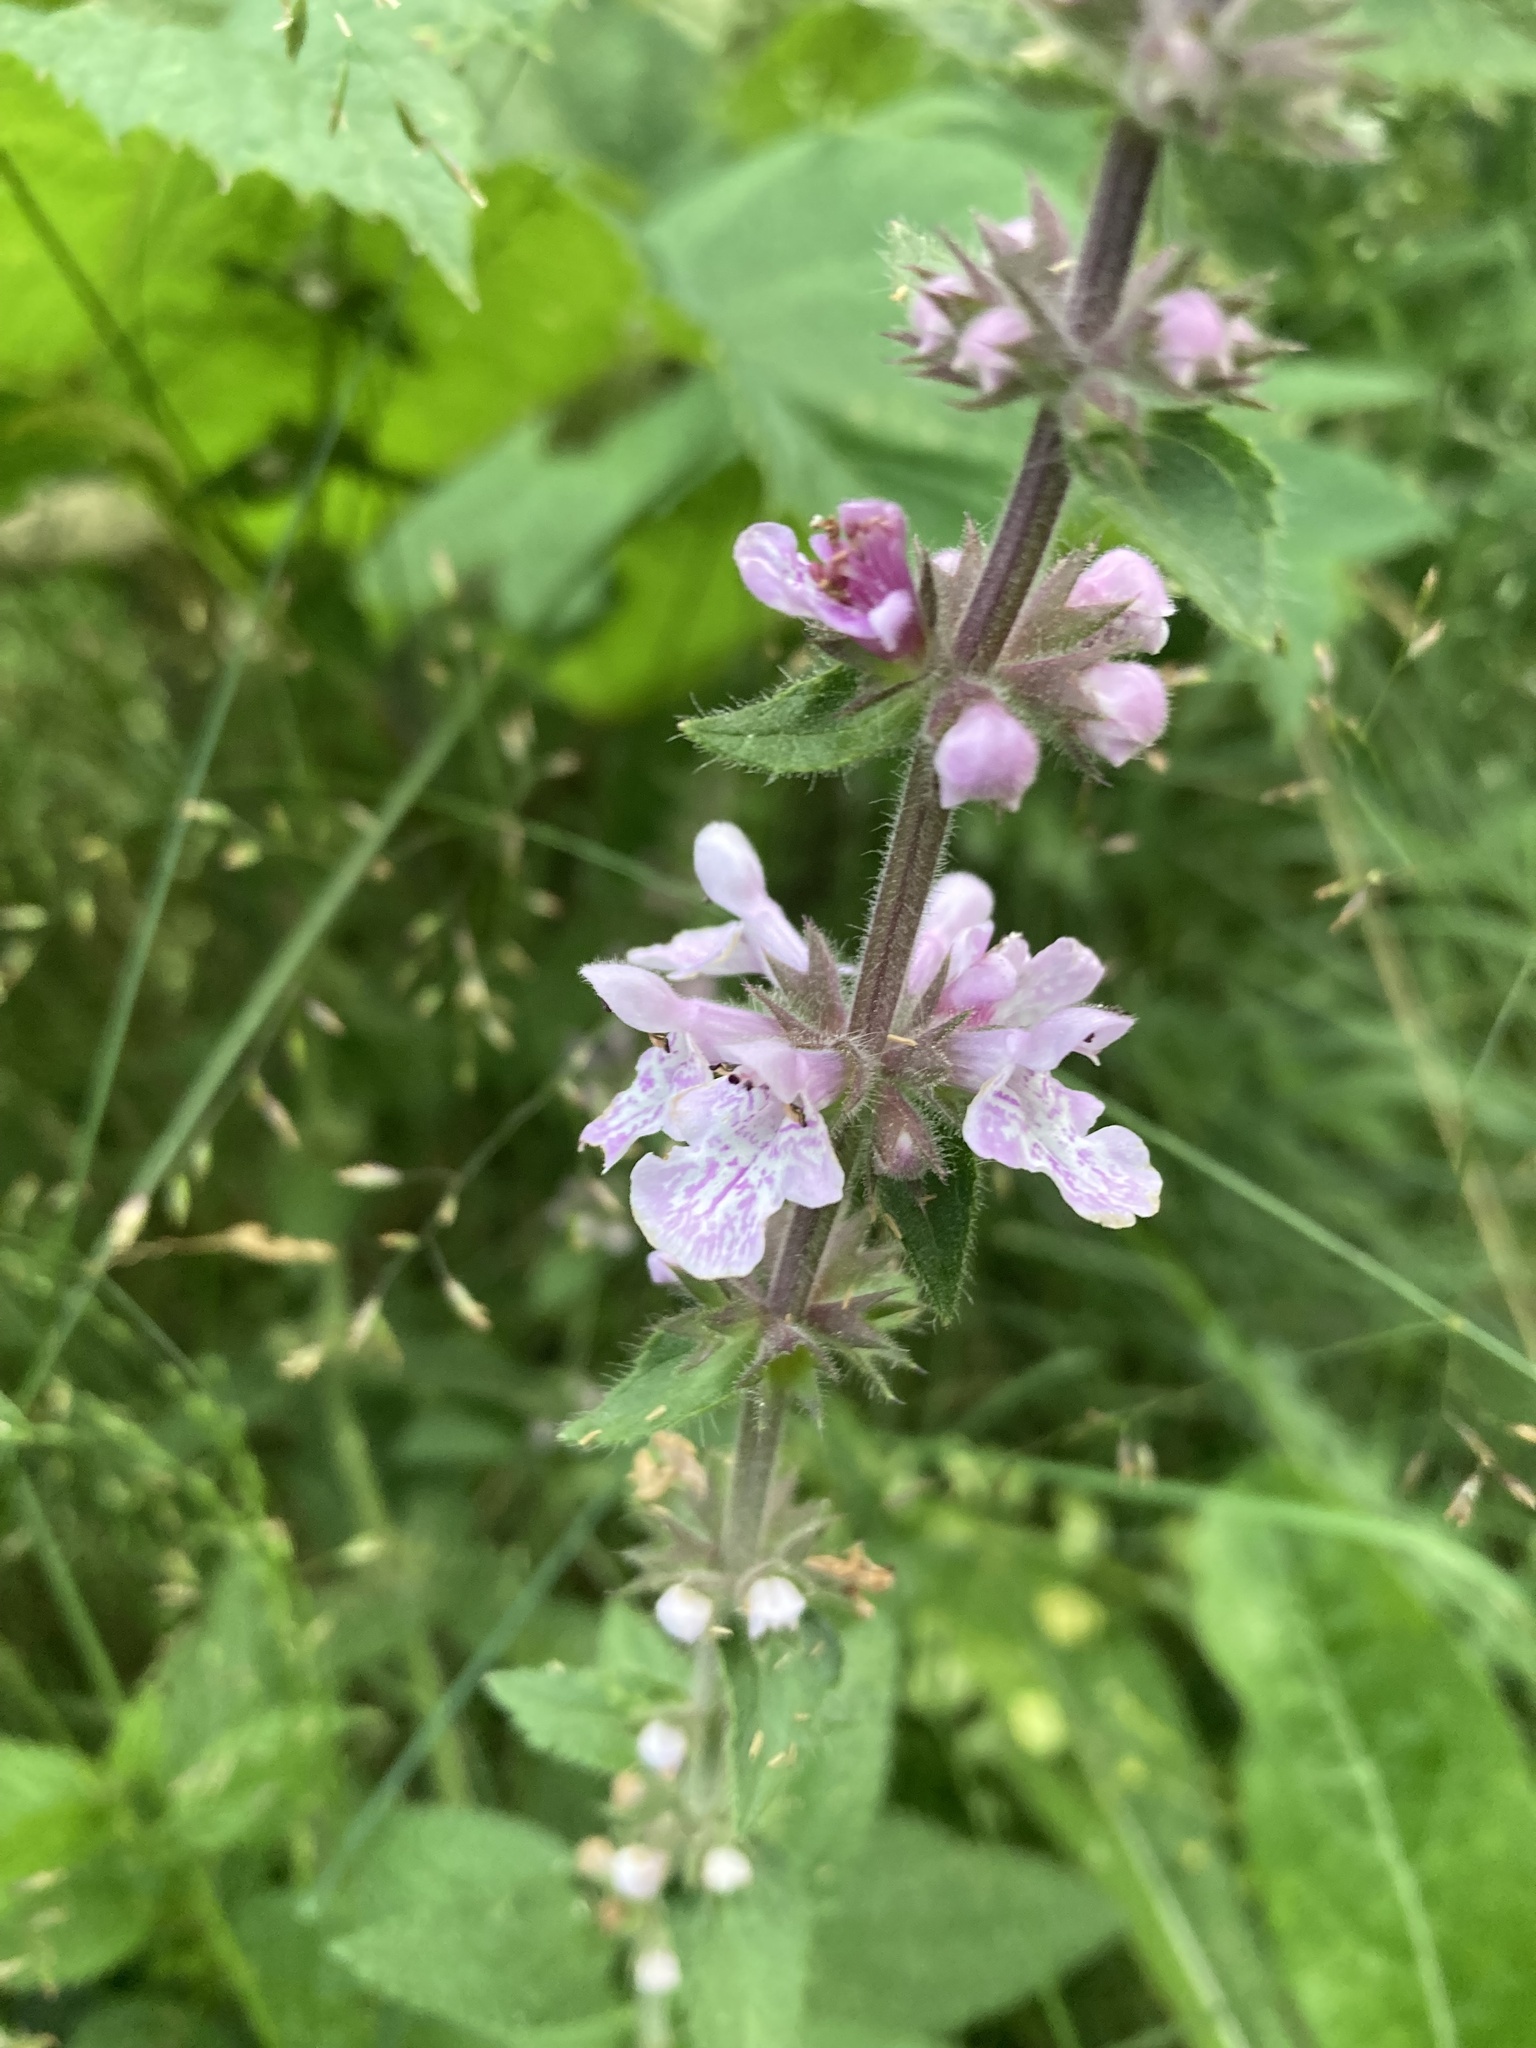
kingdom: Plantae
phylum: Tracheophyta
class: Magnoliopsida
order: Lamiales
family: Lamiaceae
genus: Stachys
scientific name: Stachys pilosa
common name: Hairy hedge-nettle
